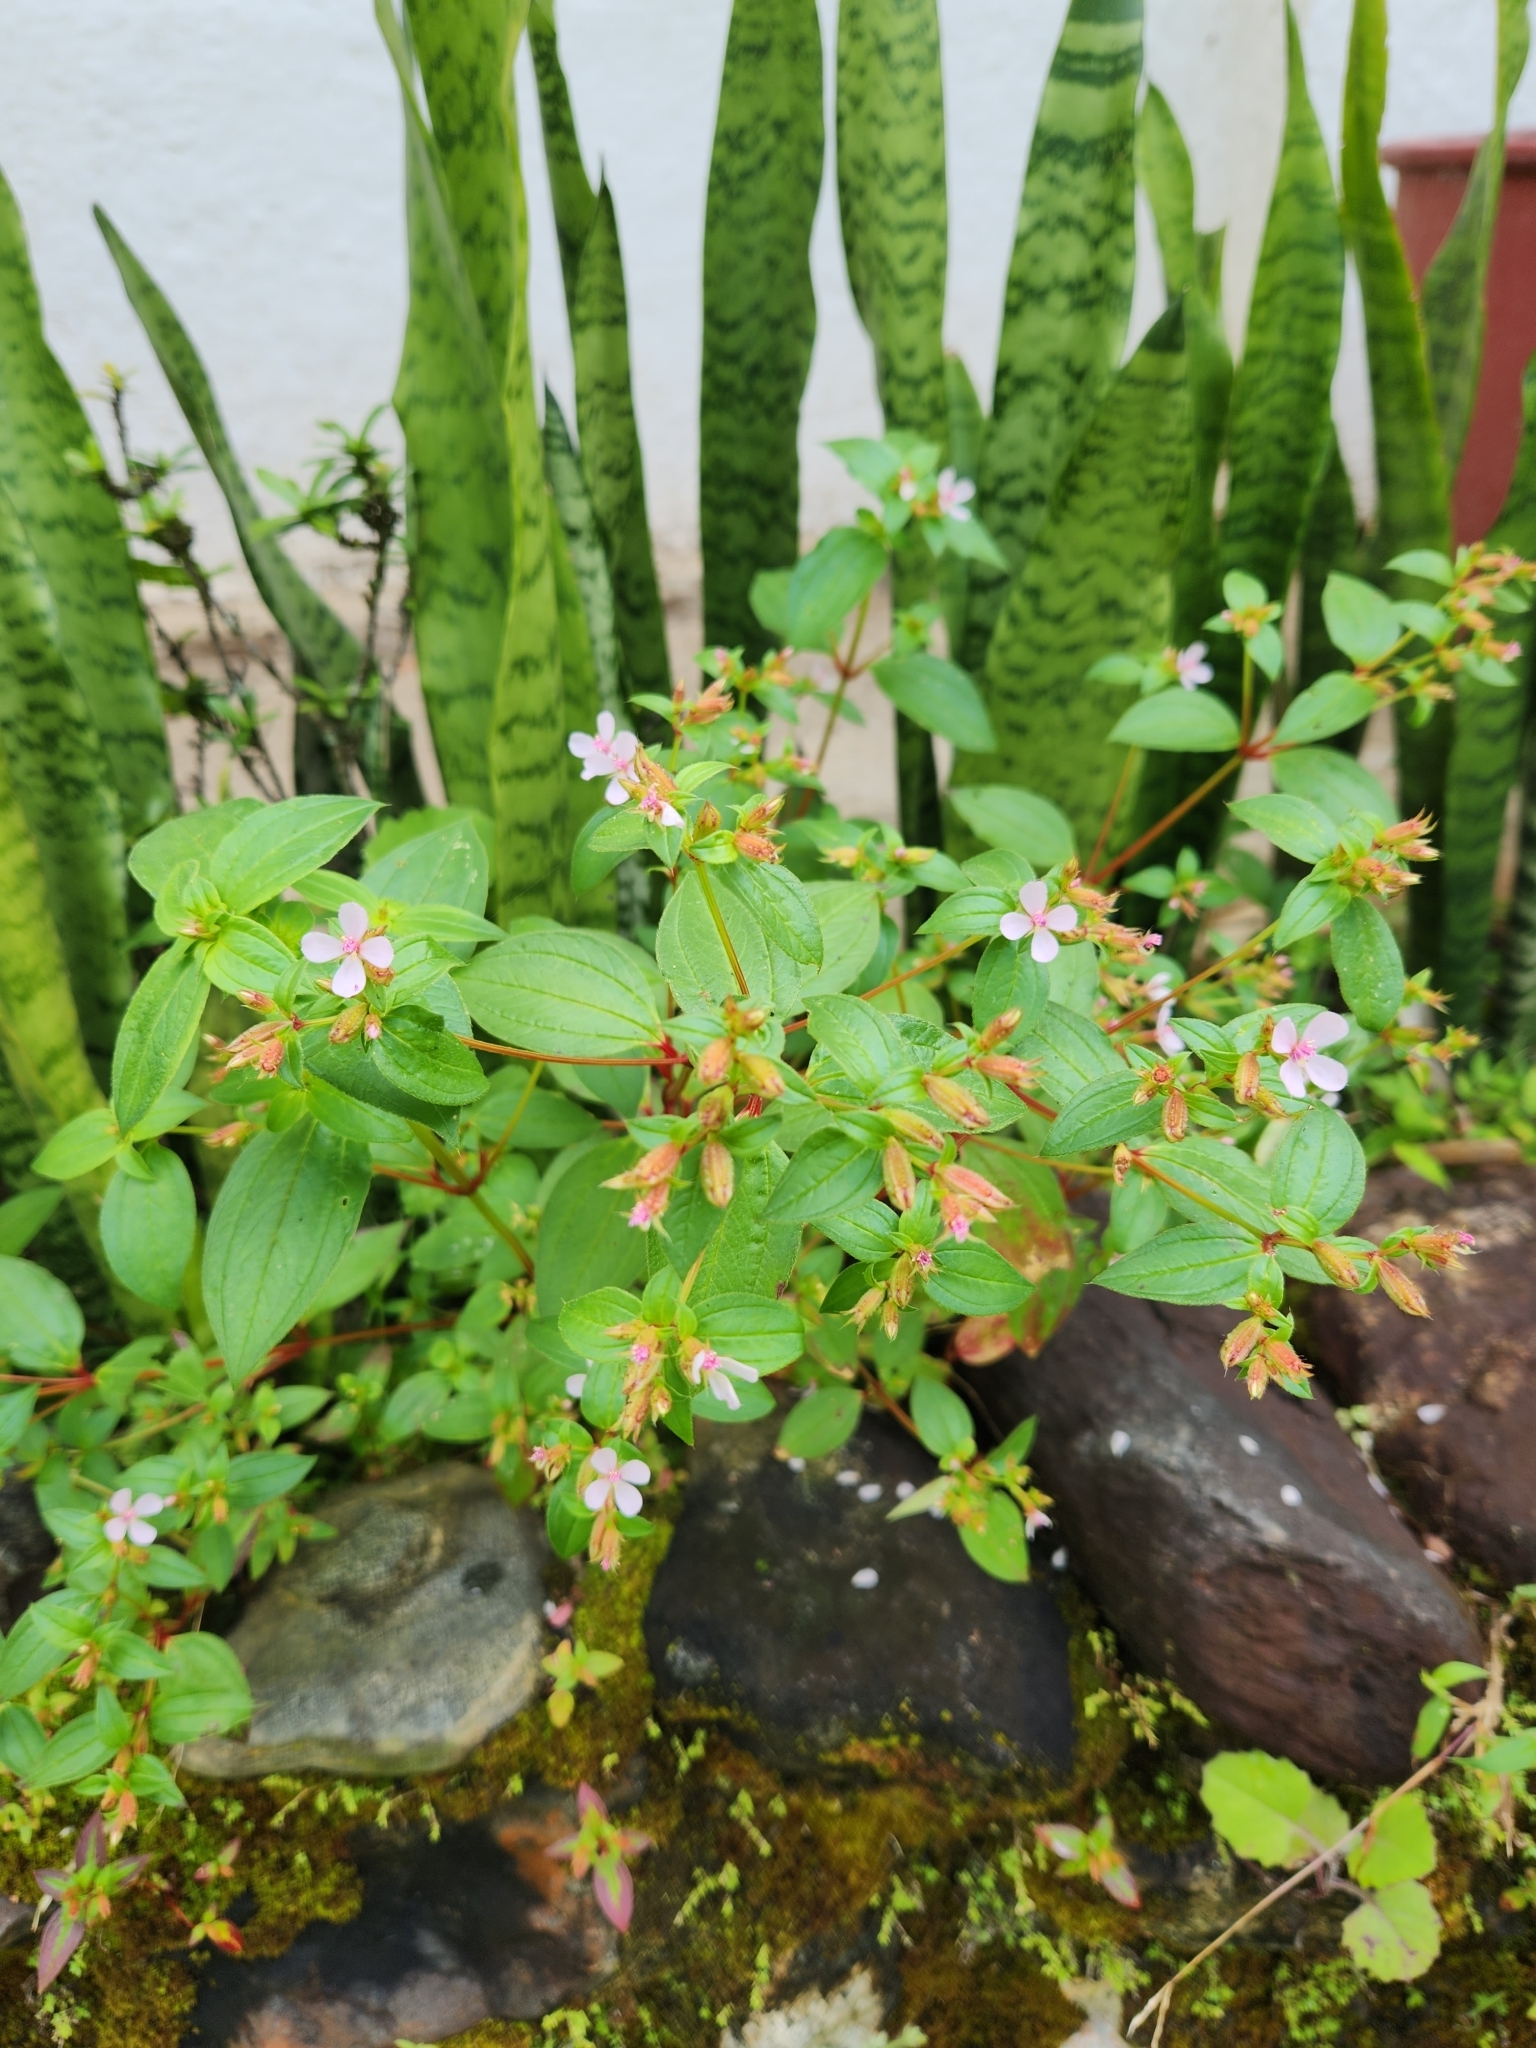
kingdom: Plantae
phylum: Tracheophyta
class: Magnoliopsida
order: Myrtales
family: Melastomataceae
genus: Schwackaea
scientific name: Schwackaea cupheoides
